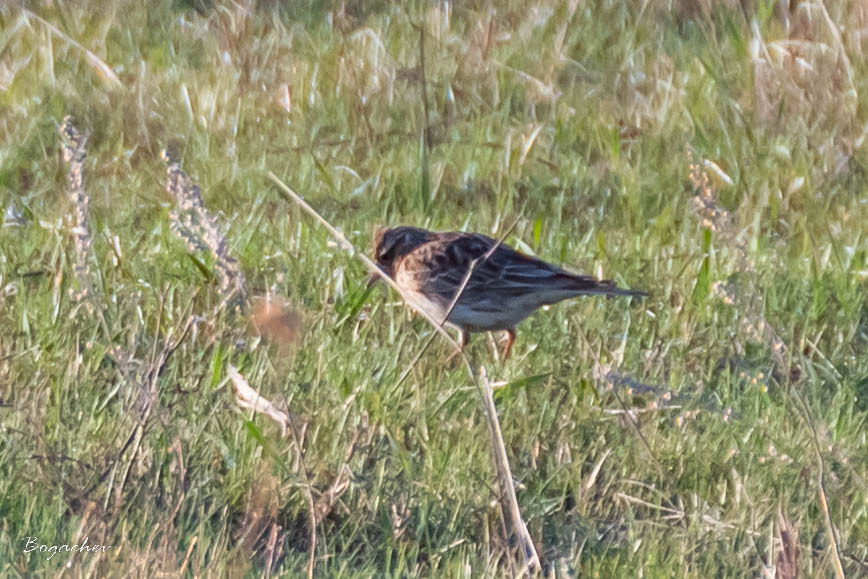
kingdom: Animalia
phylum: Chordata
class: Aves
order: Passeriformes
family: Alaudidae
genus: Alauda
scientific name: Alauda arvensis
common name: Eurasian skylark
